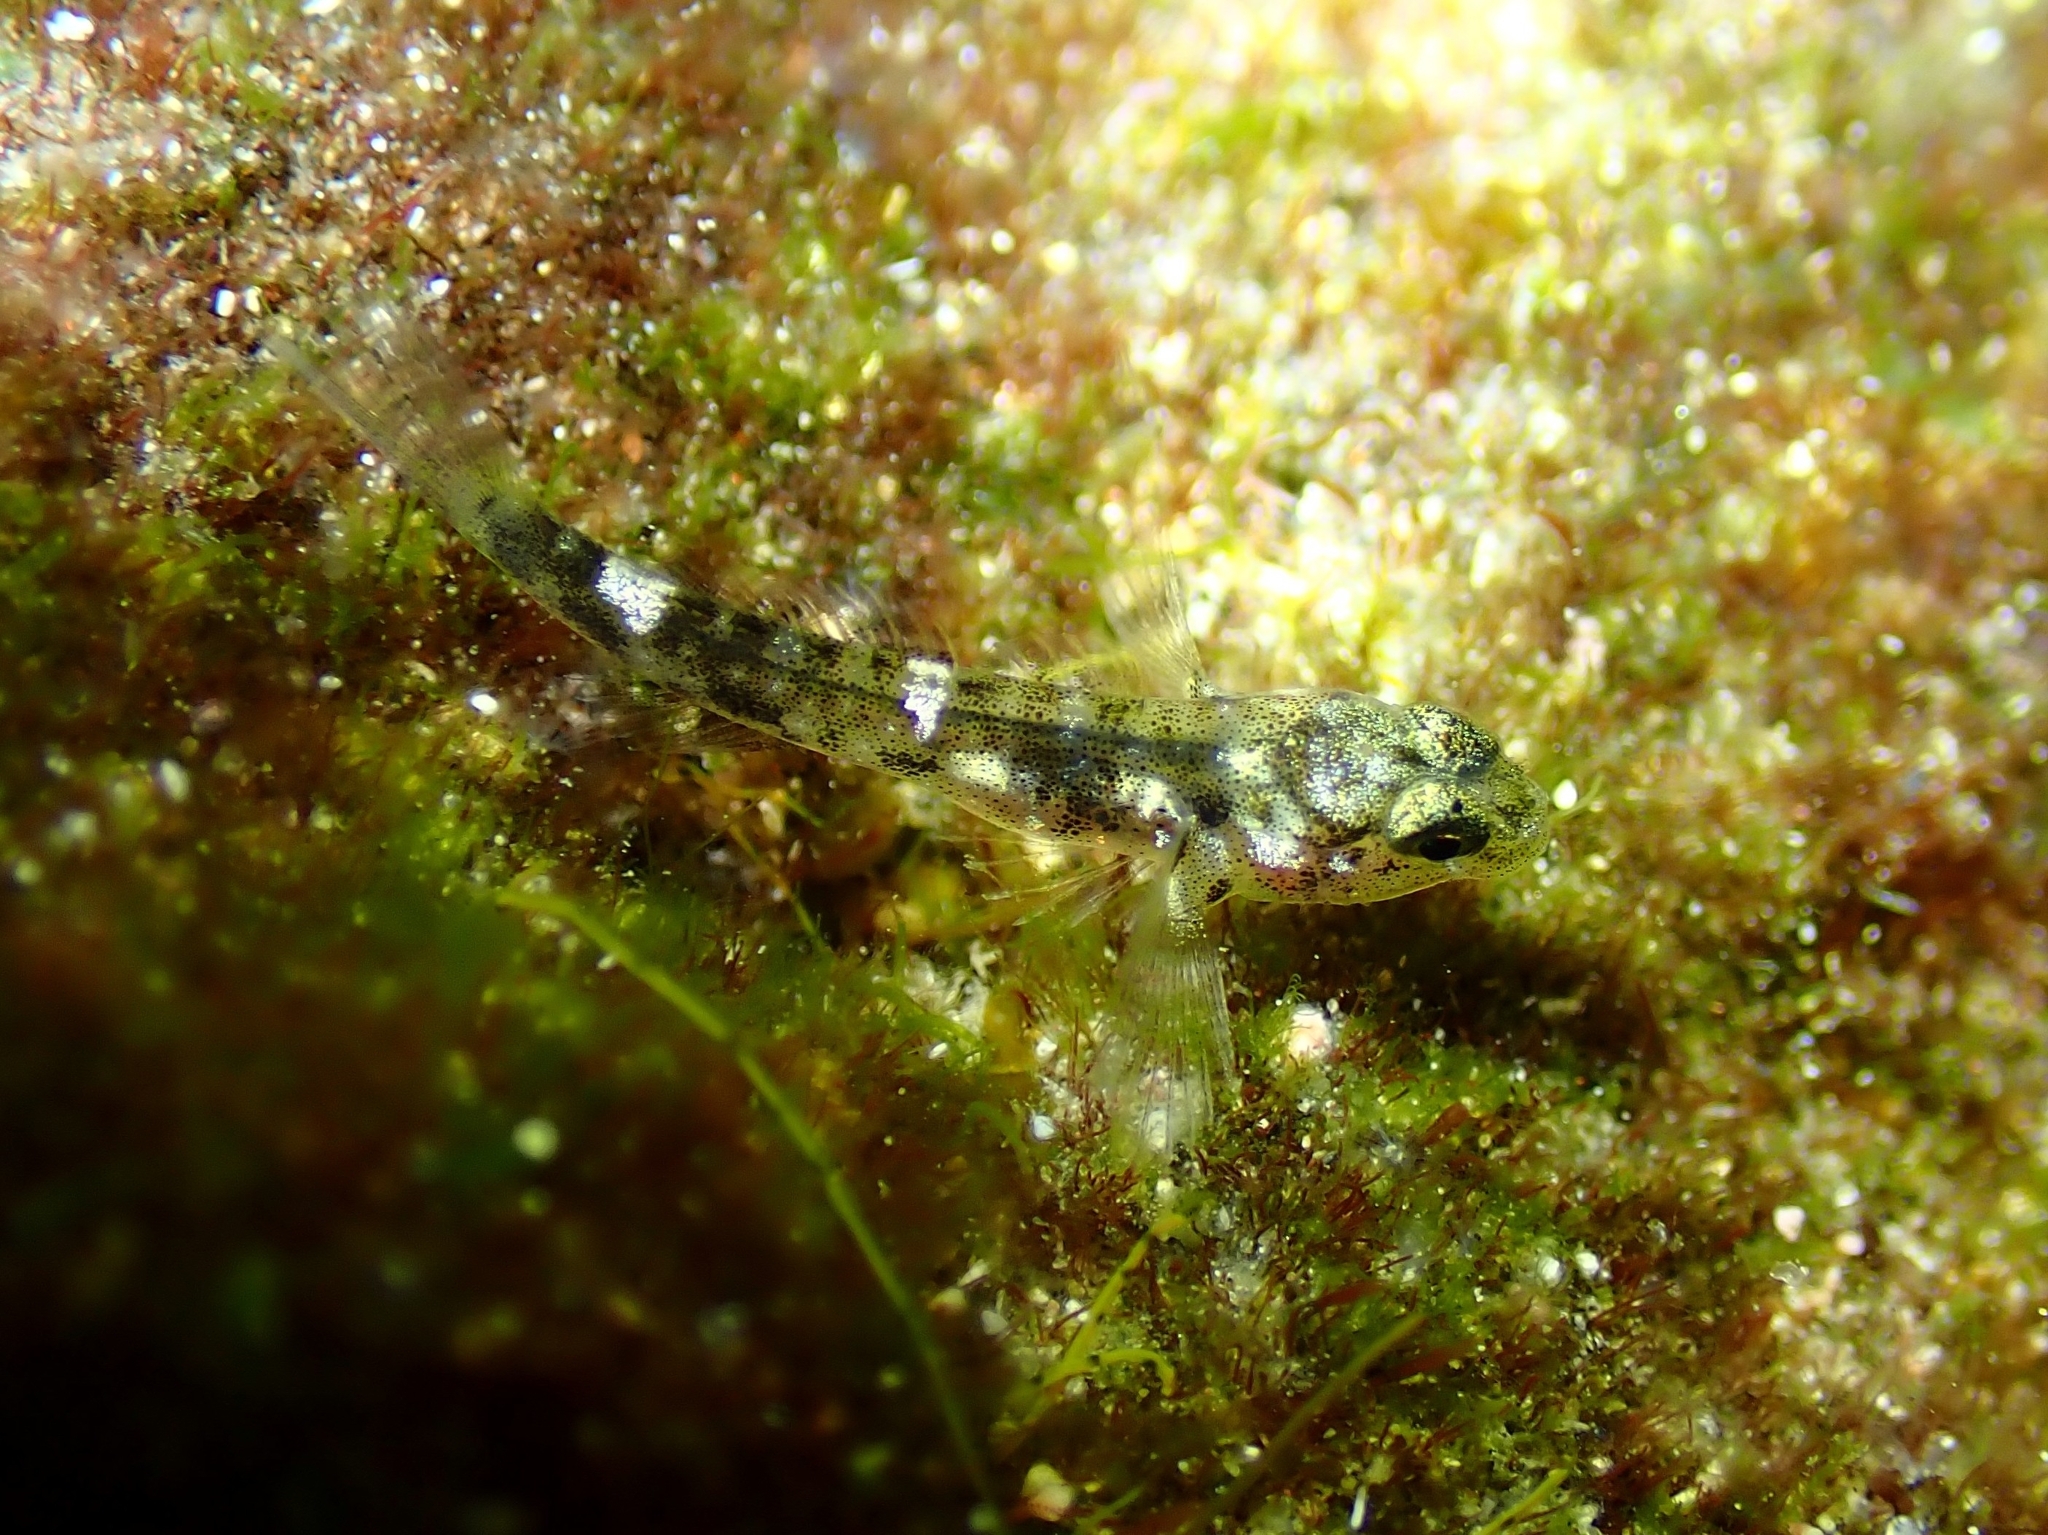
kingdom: Animalia
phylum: Chordata
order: Perciformes
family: Gobiidae
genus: Mauligobius
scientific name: Mauligobius maderensis
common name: Rock goby
